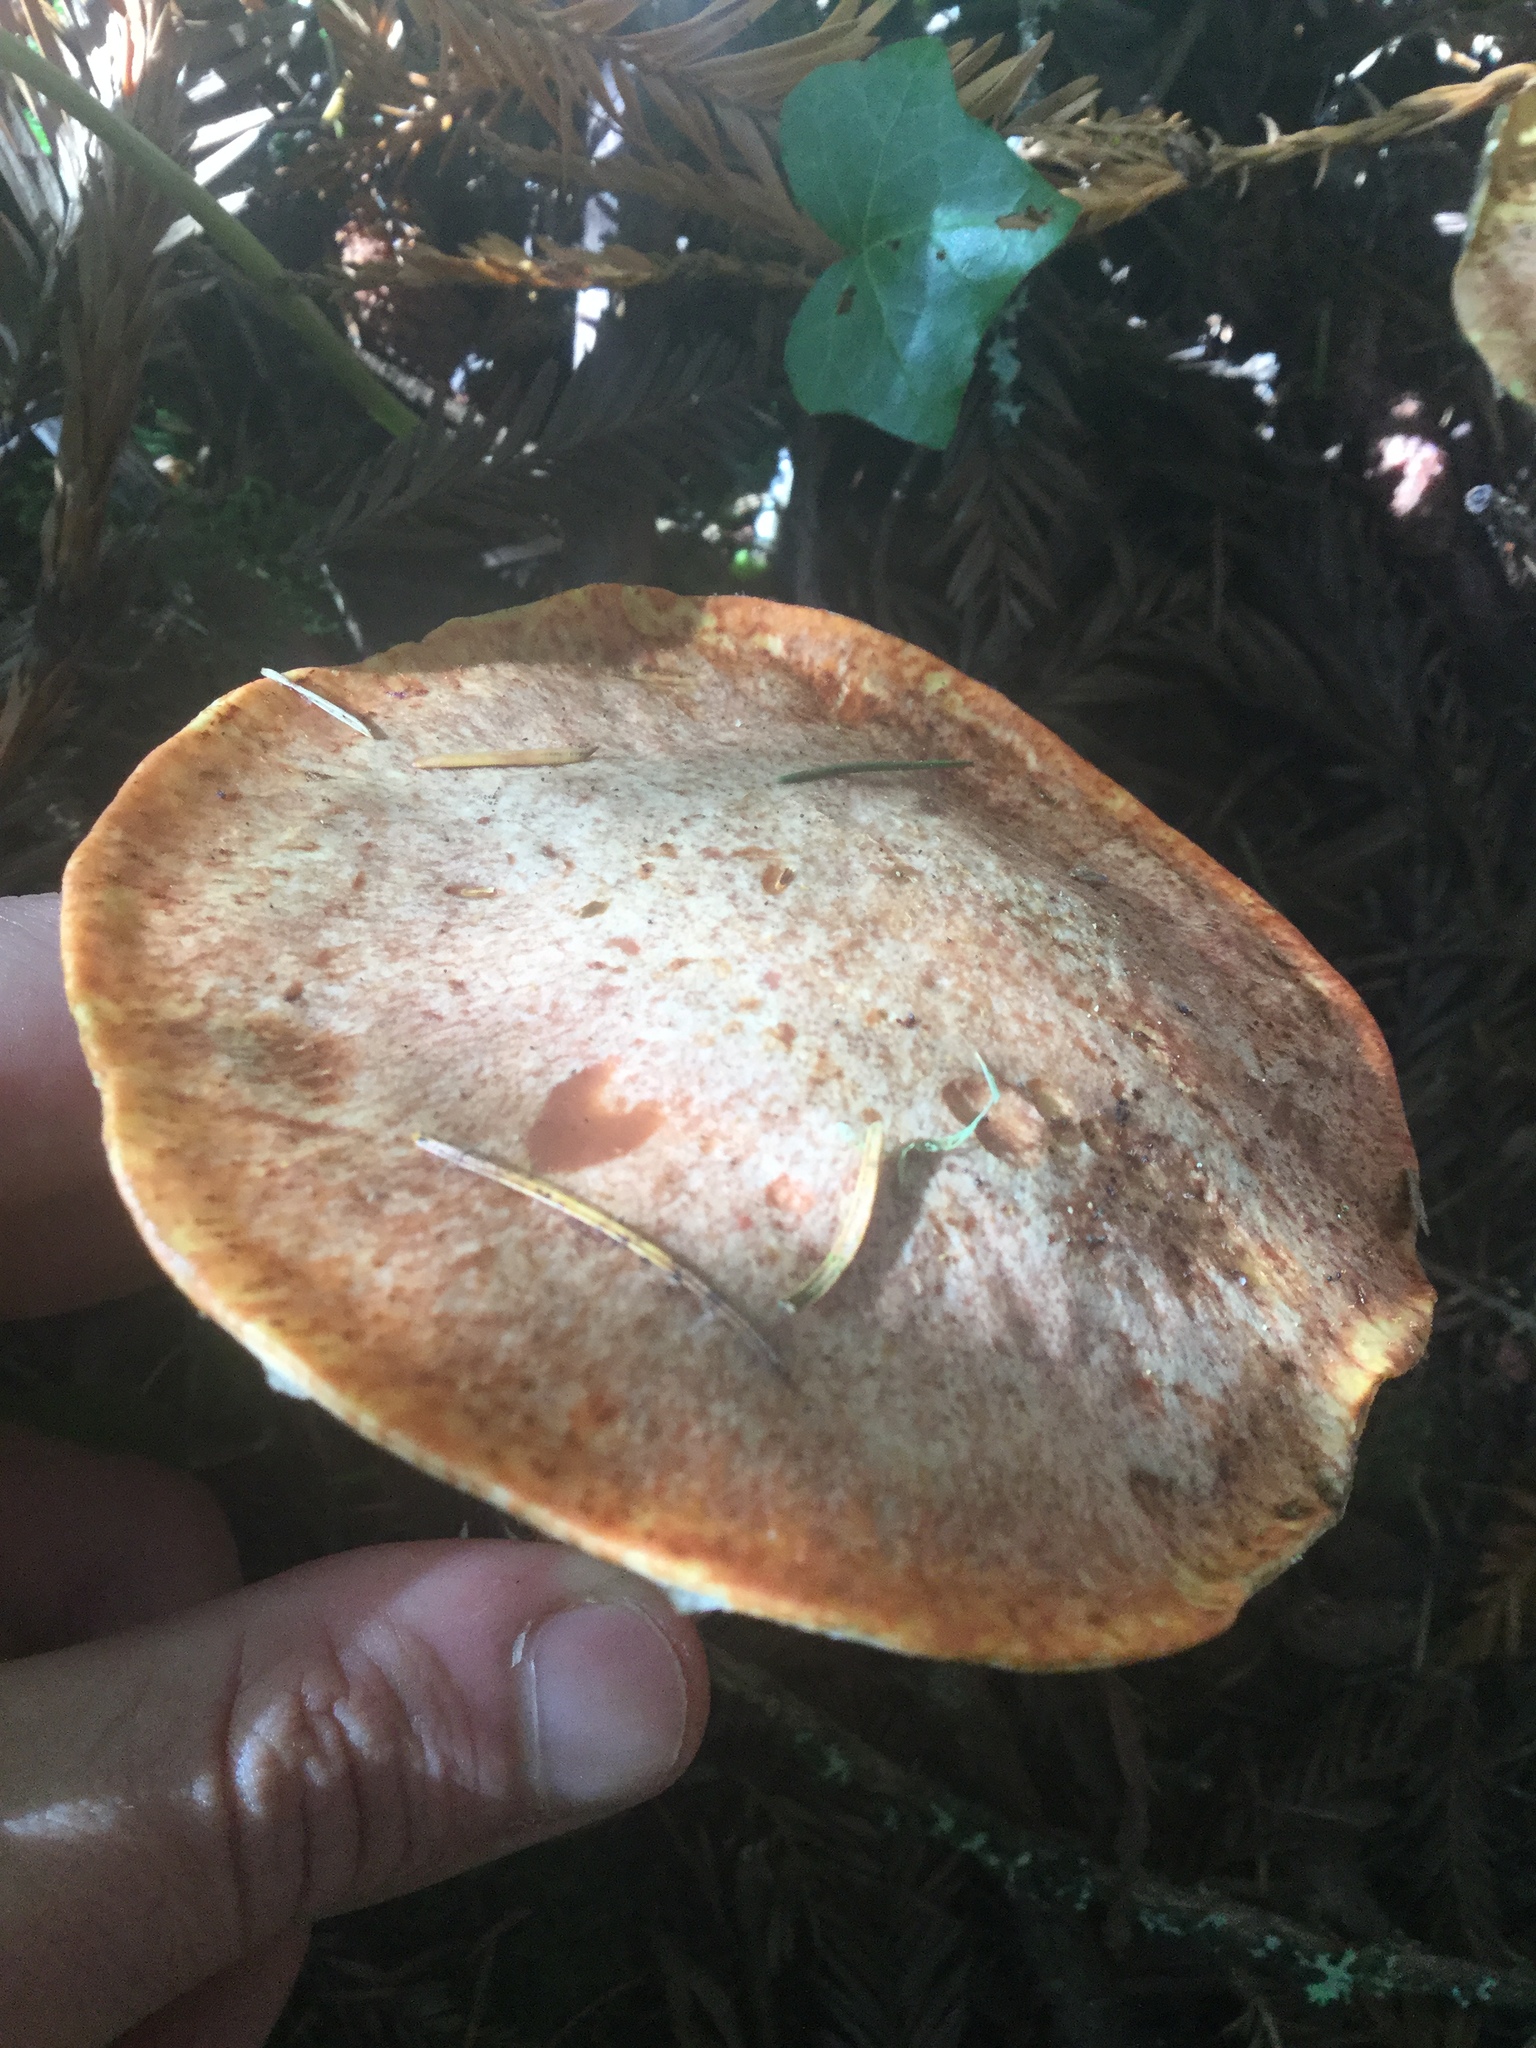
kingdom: Fungi
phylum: Basidiomycota
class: Agaricomycetes
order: Boletales
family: Suillaceae
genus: Suillus
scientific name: Suillus caerulescens
